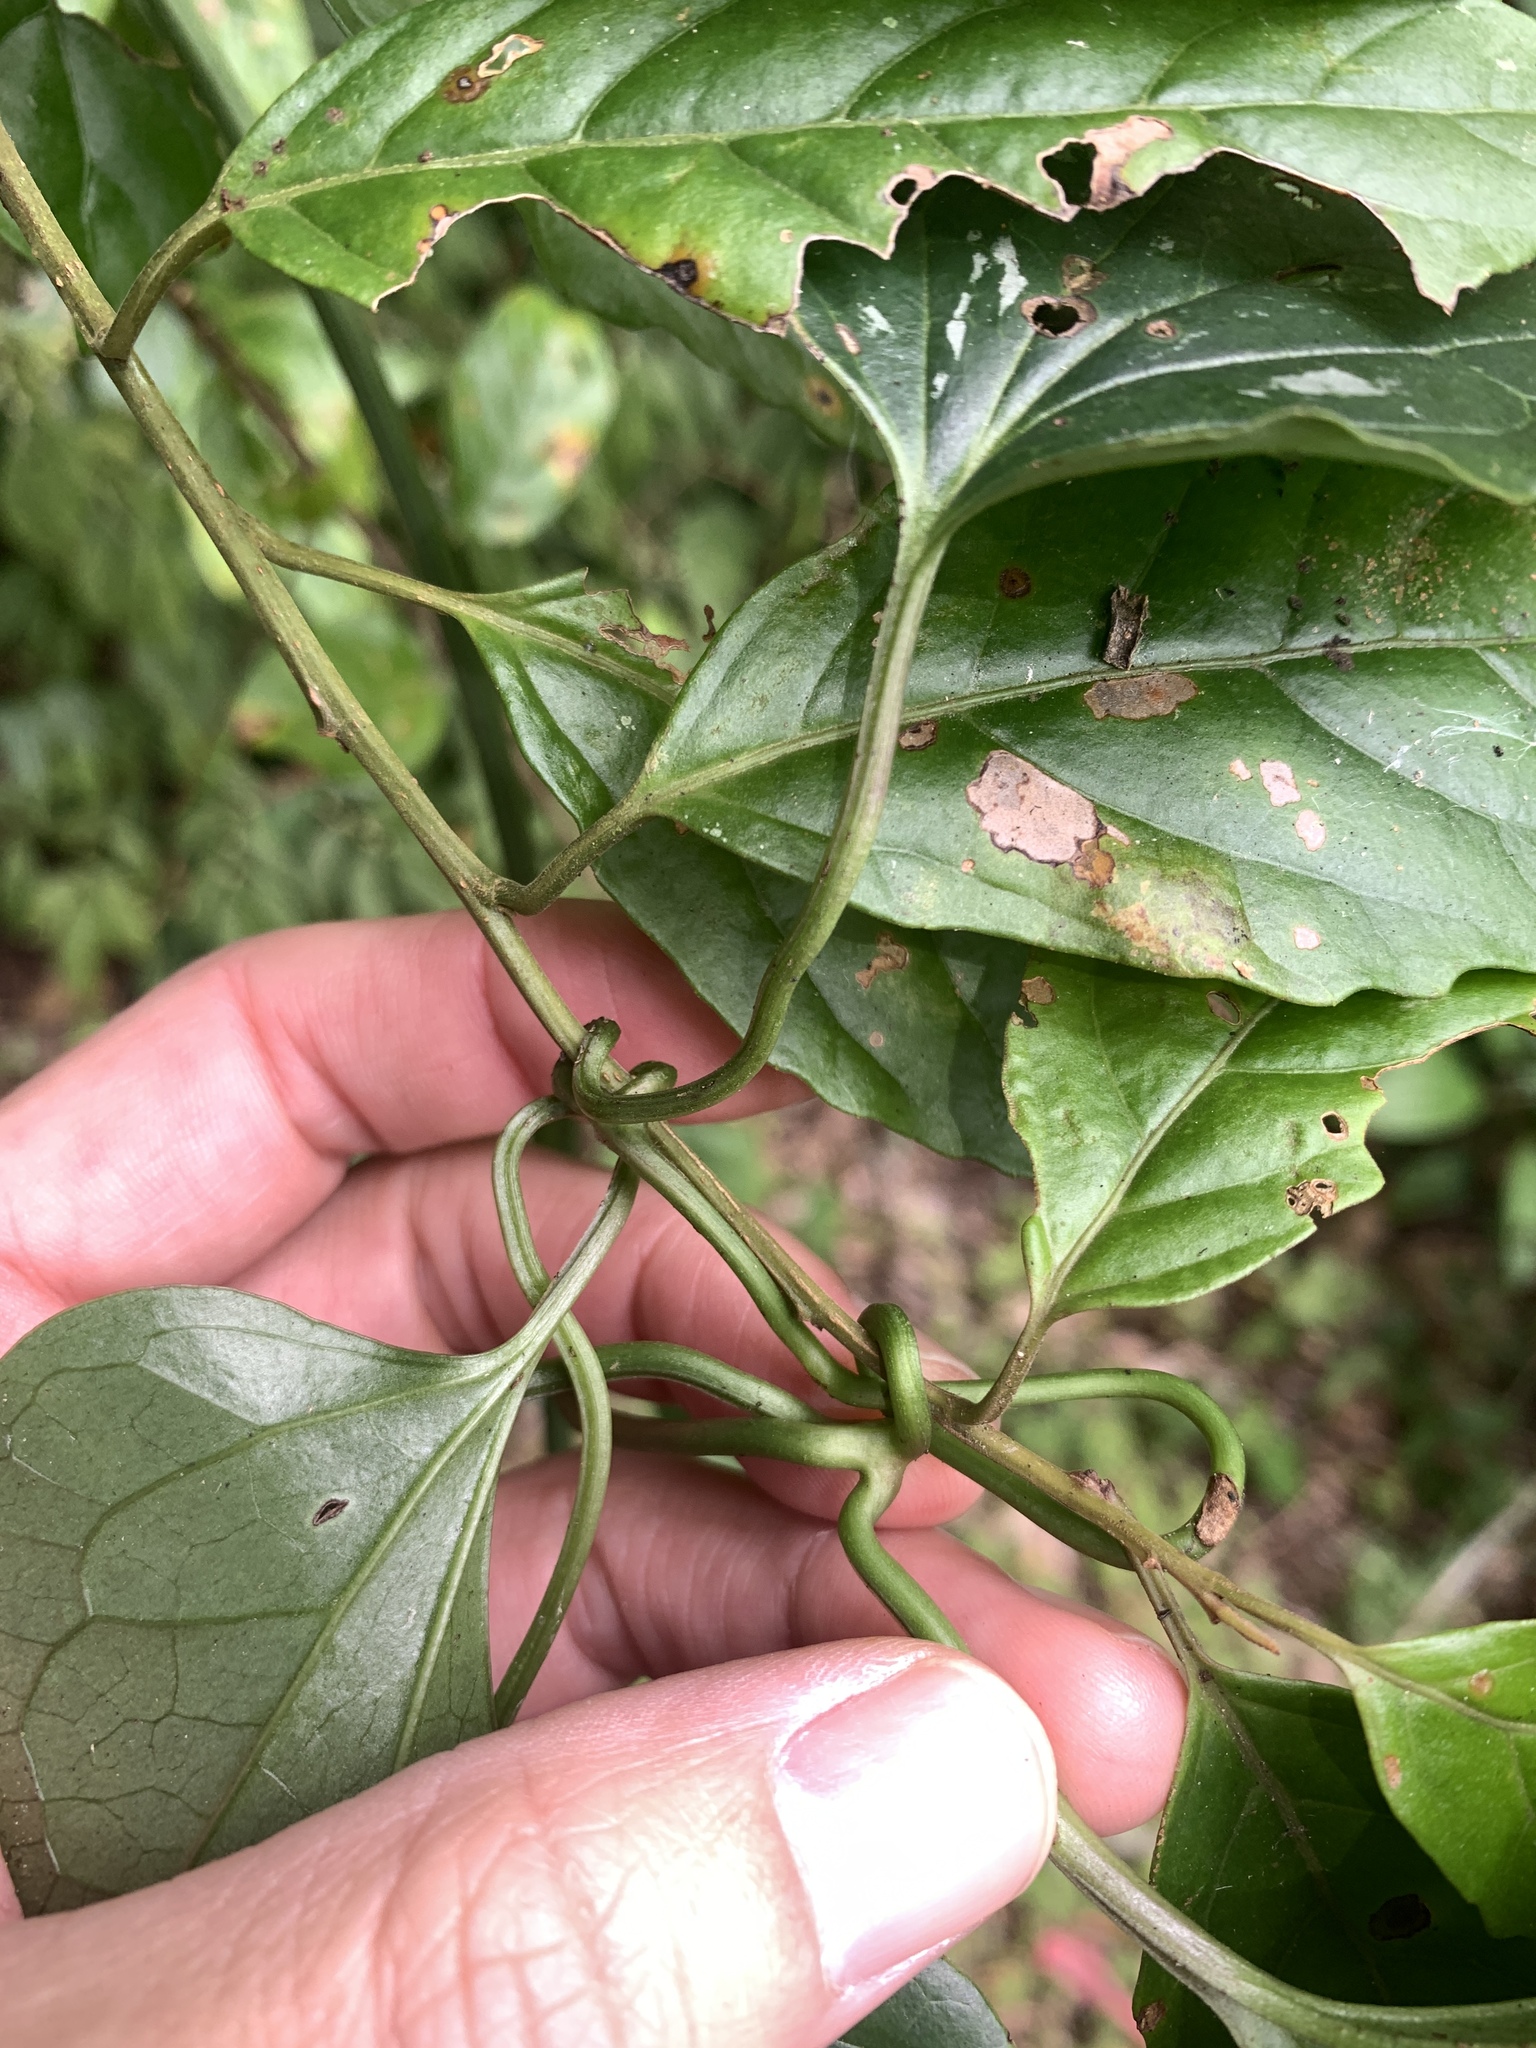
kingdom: Plantae
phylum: Tracheophyta
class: Magnoliopsida
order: Ranunculales
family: Ranunculaceae
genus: Clematis
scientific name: Clematis tashiroi
